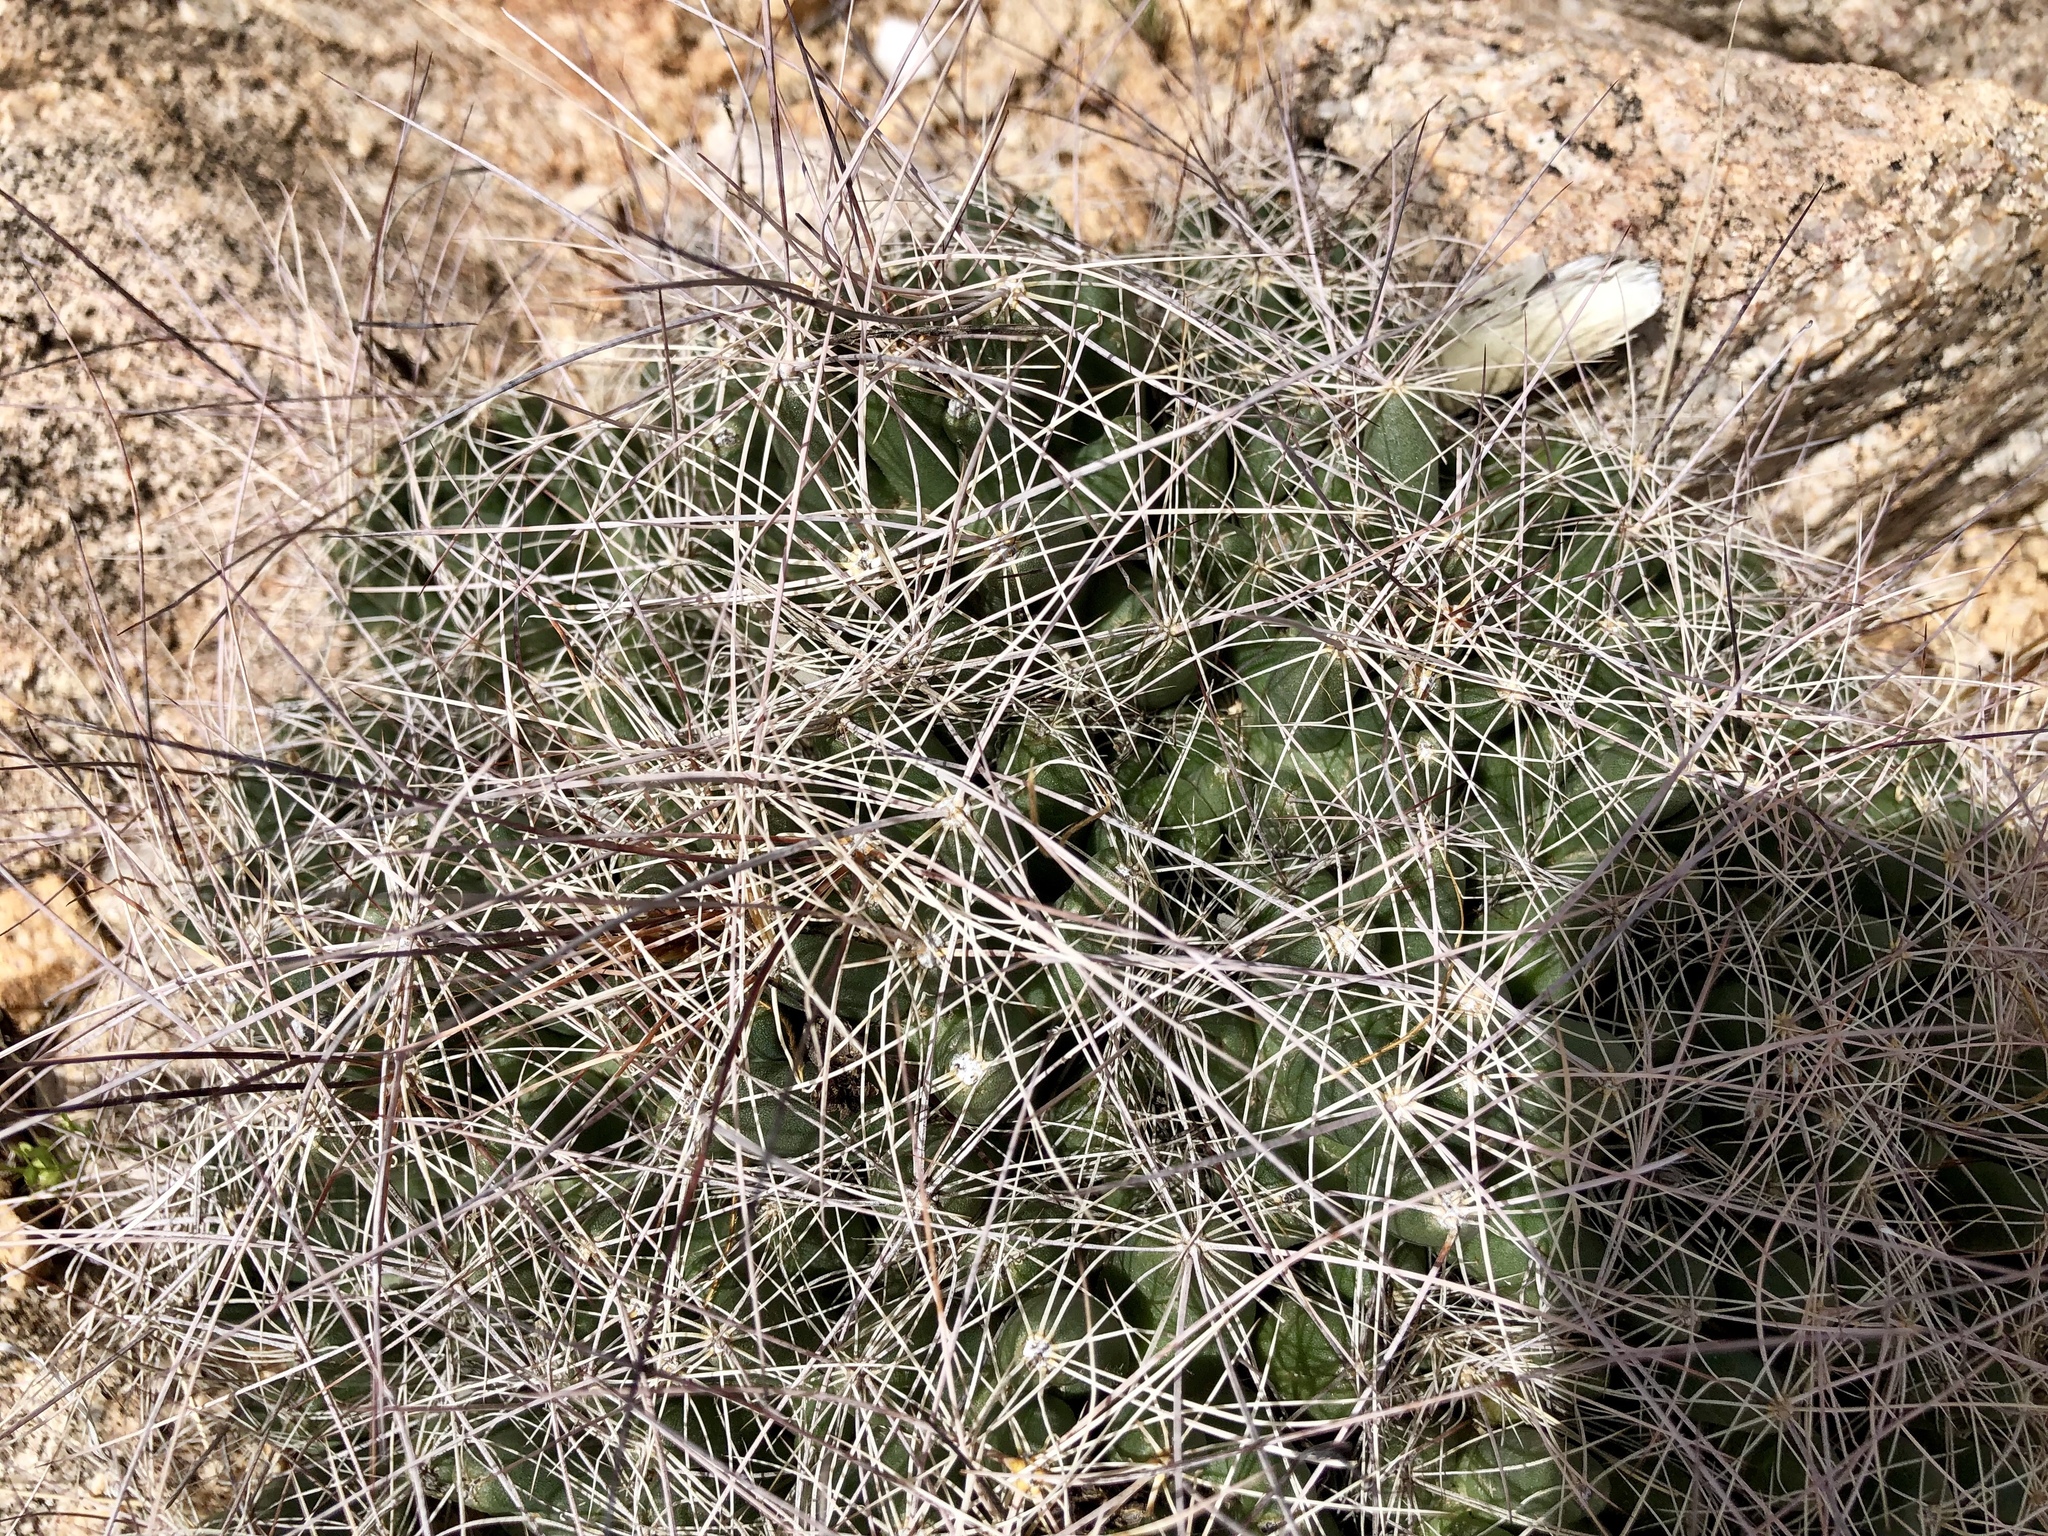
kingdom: Plantae
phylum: Tracheophyta
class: Magnoliopsida
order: Caryophyllales
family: Cactaceae
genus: Coryphantha
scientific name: Coryphantha macromeris
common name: Nipple beehive cactus
